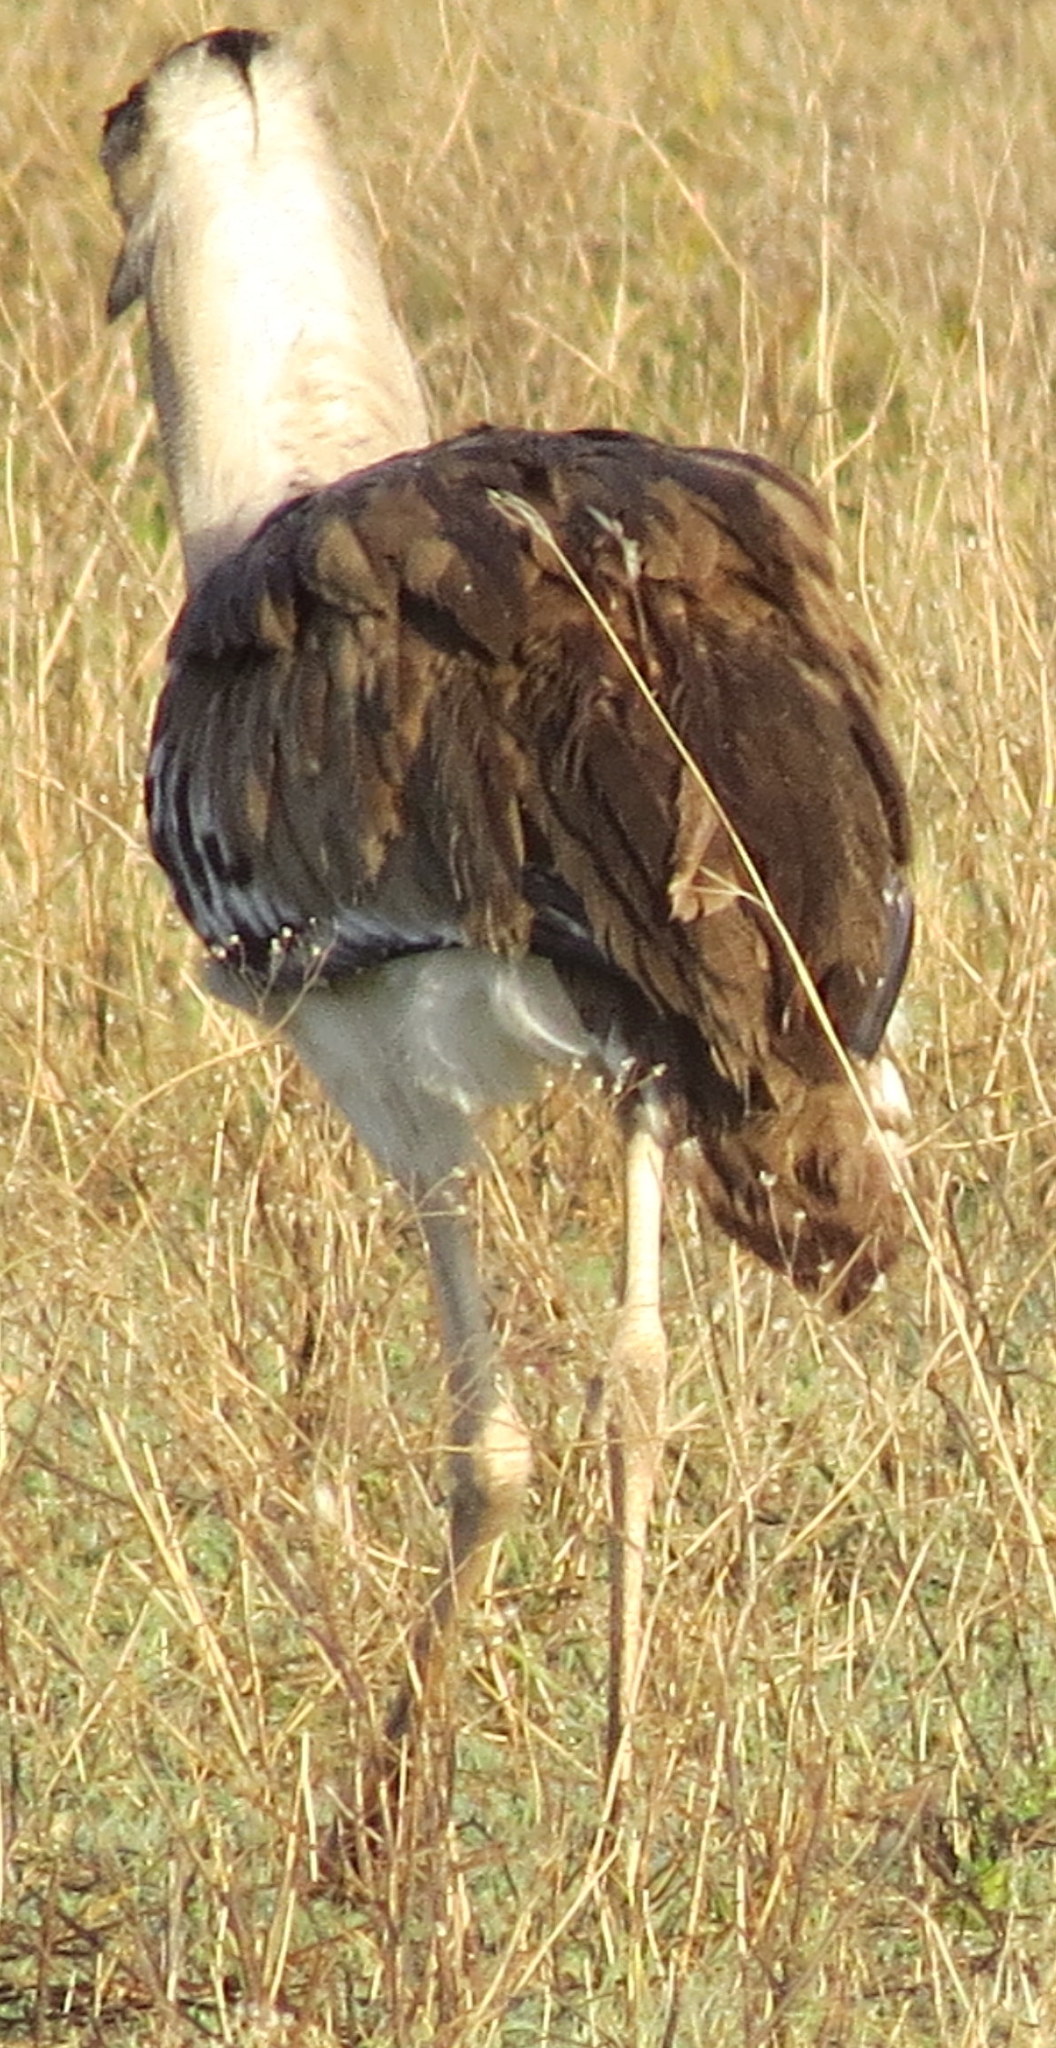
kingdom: Animalia
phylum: Chordata
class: Aves
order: Otidiformes
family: Otididae
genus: Ardeotis
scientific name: Ardeotis kori
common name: Kori bustard
